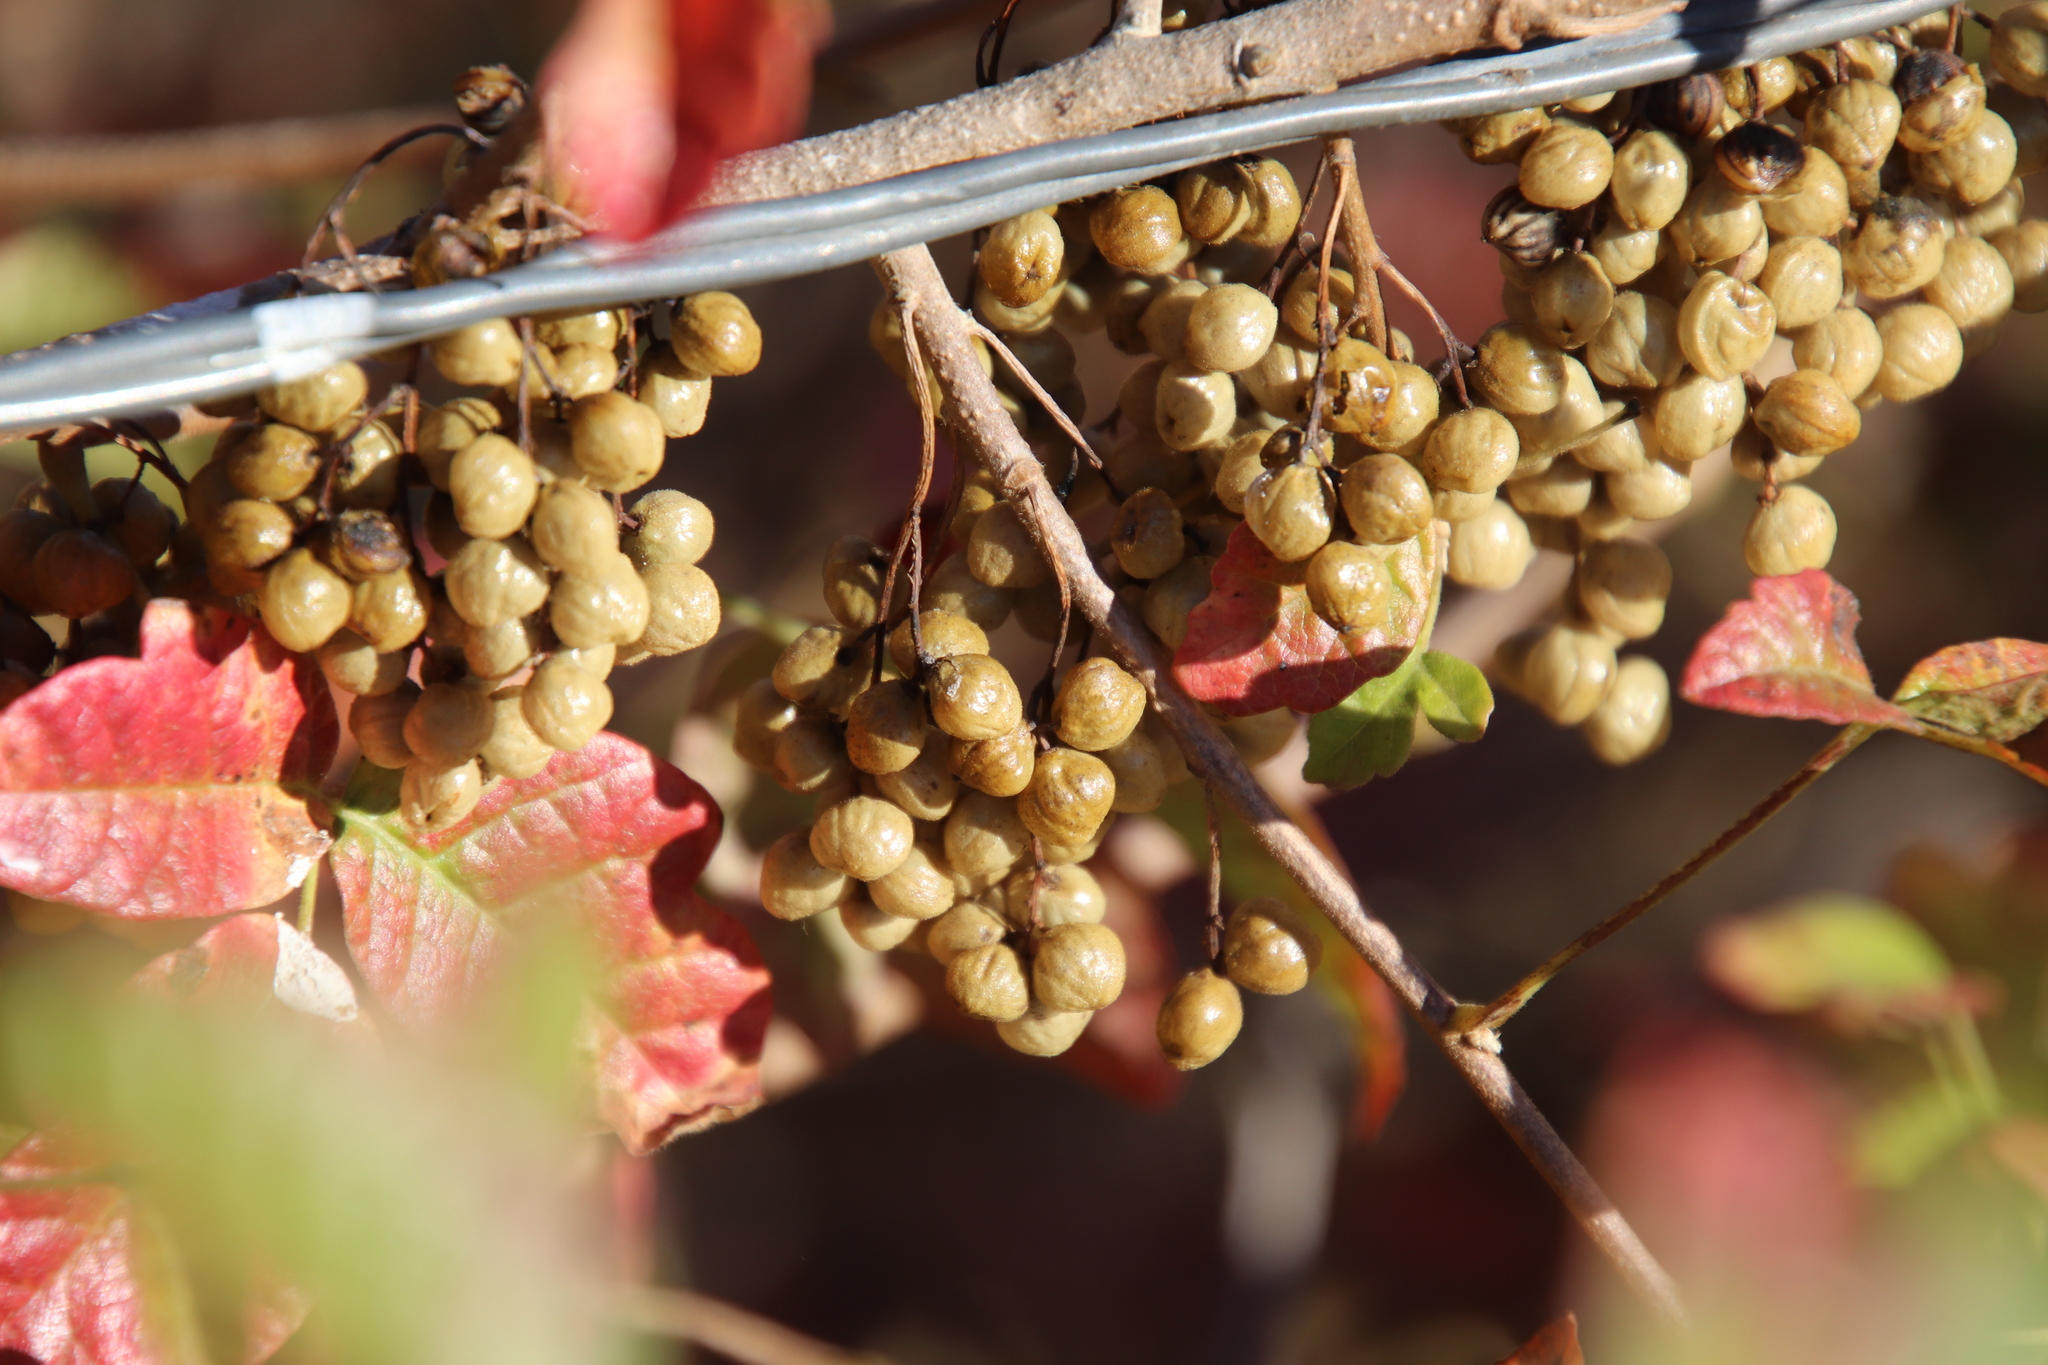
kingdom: Plantae
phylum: Tracheophyta
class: Magnoliopsida
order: Sapindales
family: Anacardiaceae
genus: Toxicodendron
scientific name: Toxicodendron diversilobum
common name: Pacific poison-oak
